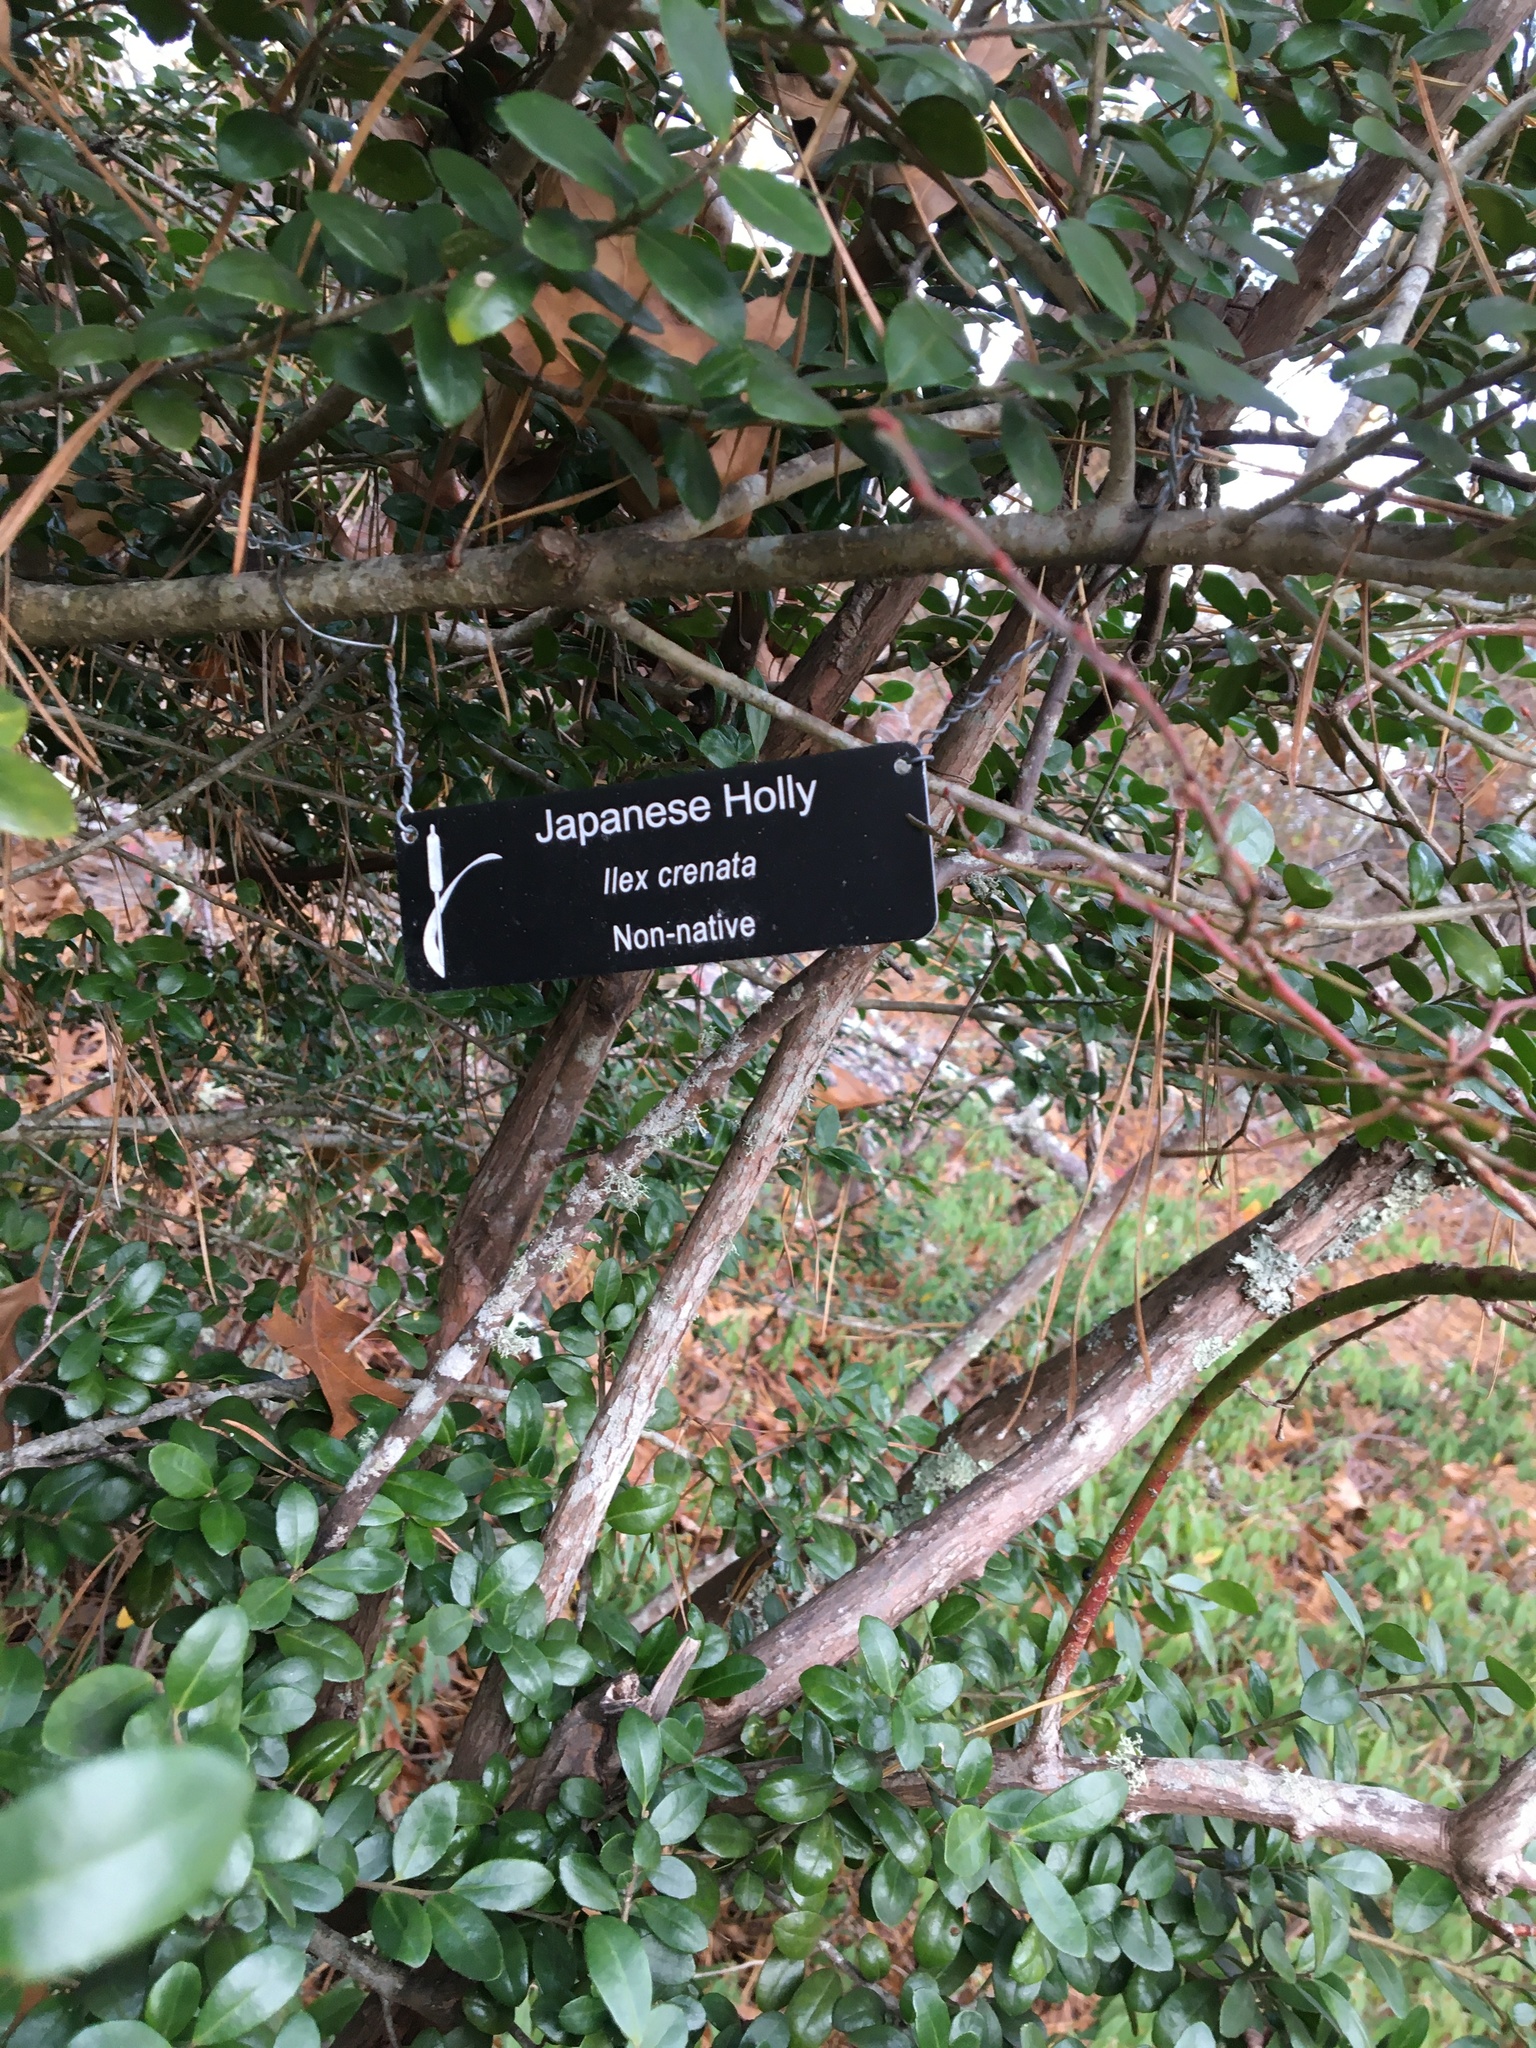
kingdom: Plantae
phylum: Tracheophyta
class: Magnoliopsida
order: Aquifoliales
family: Aquifoliaceae
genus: Ilex
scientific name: Ilex crenata
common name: Japanese holly
